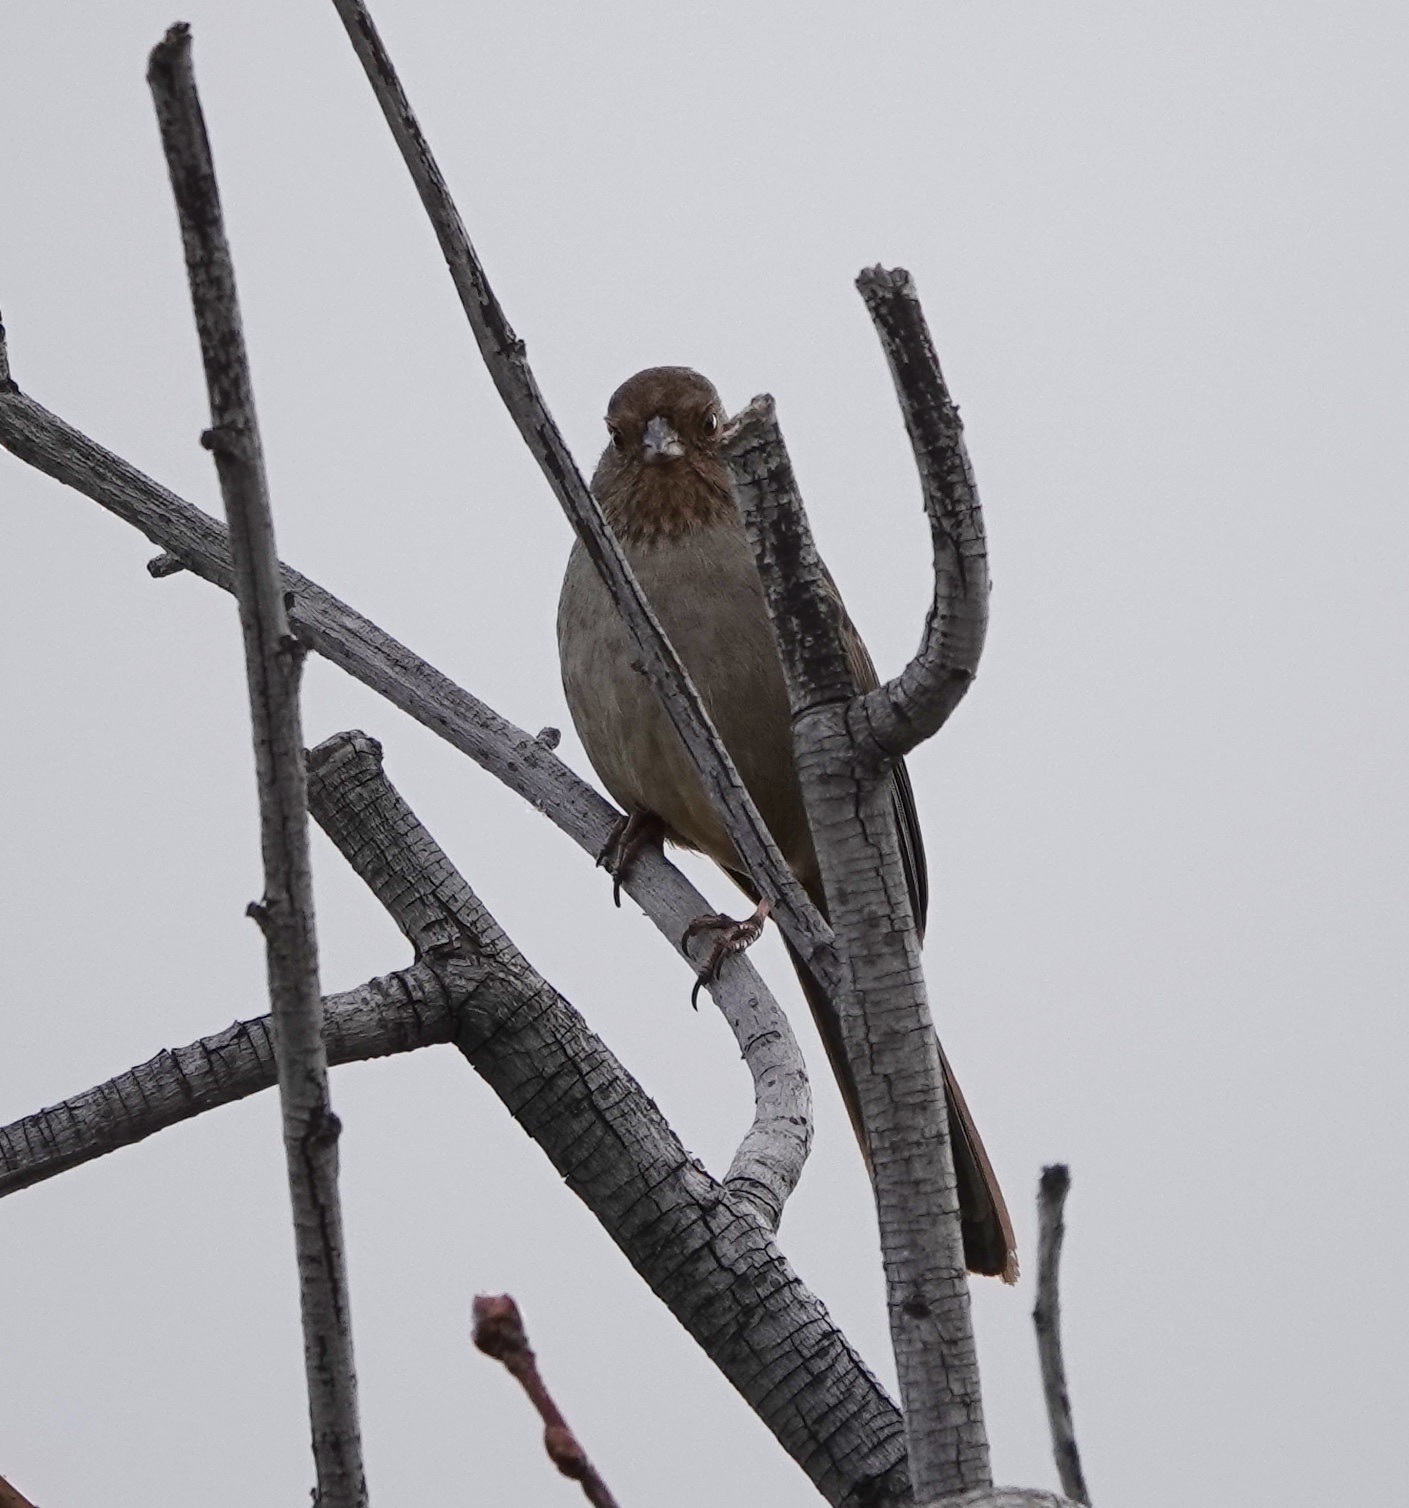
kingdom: Animalia
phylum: Chordata
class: Aves
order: Passeriformes
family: Passerellidae
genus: Melozone
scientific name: Melozone crissalis
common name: California towhee
